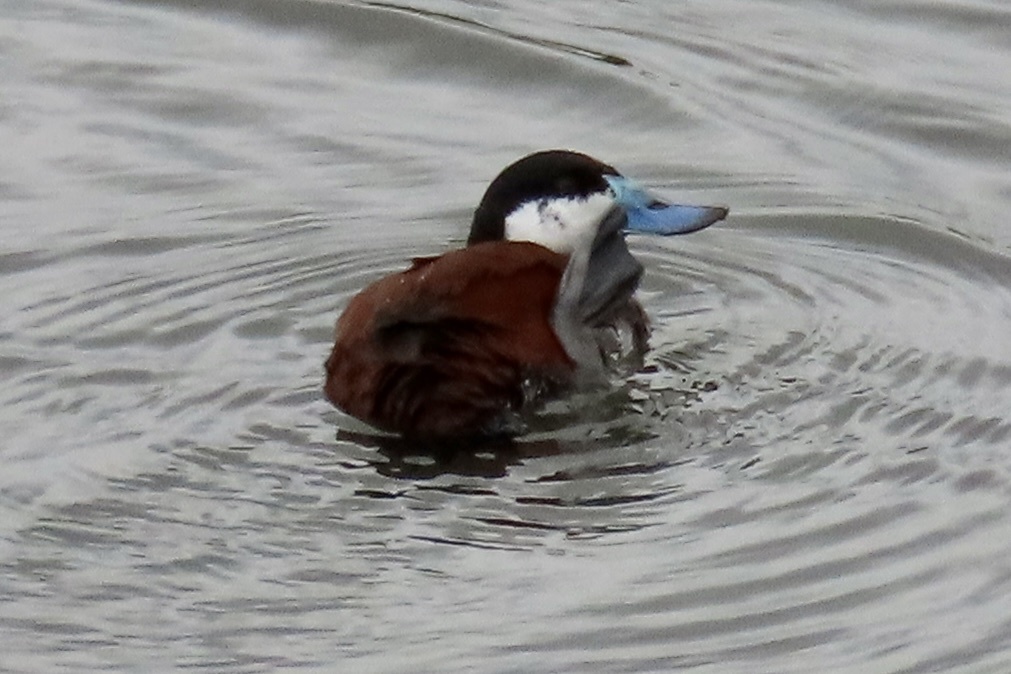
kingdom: Animalia
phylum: Chordata
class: Aves
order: Anseriformes
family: Anatidae
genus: Oxyura
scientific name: Oxyura jamaicensis
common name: Ruddy duck
